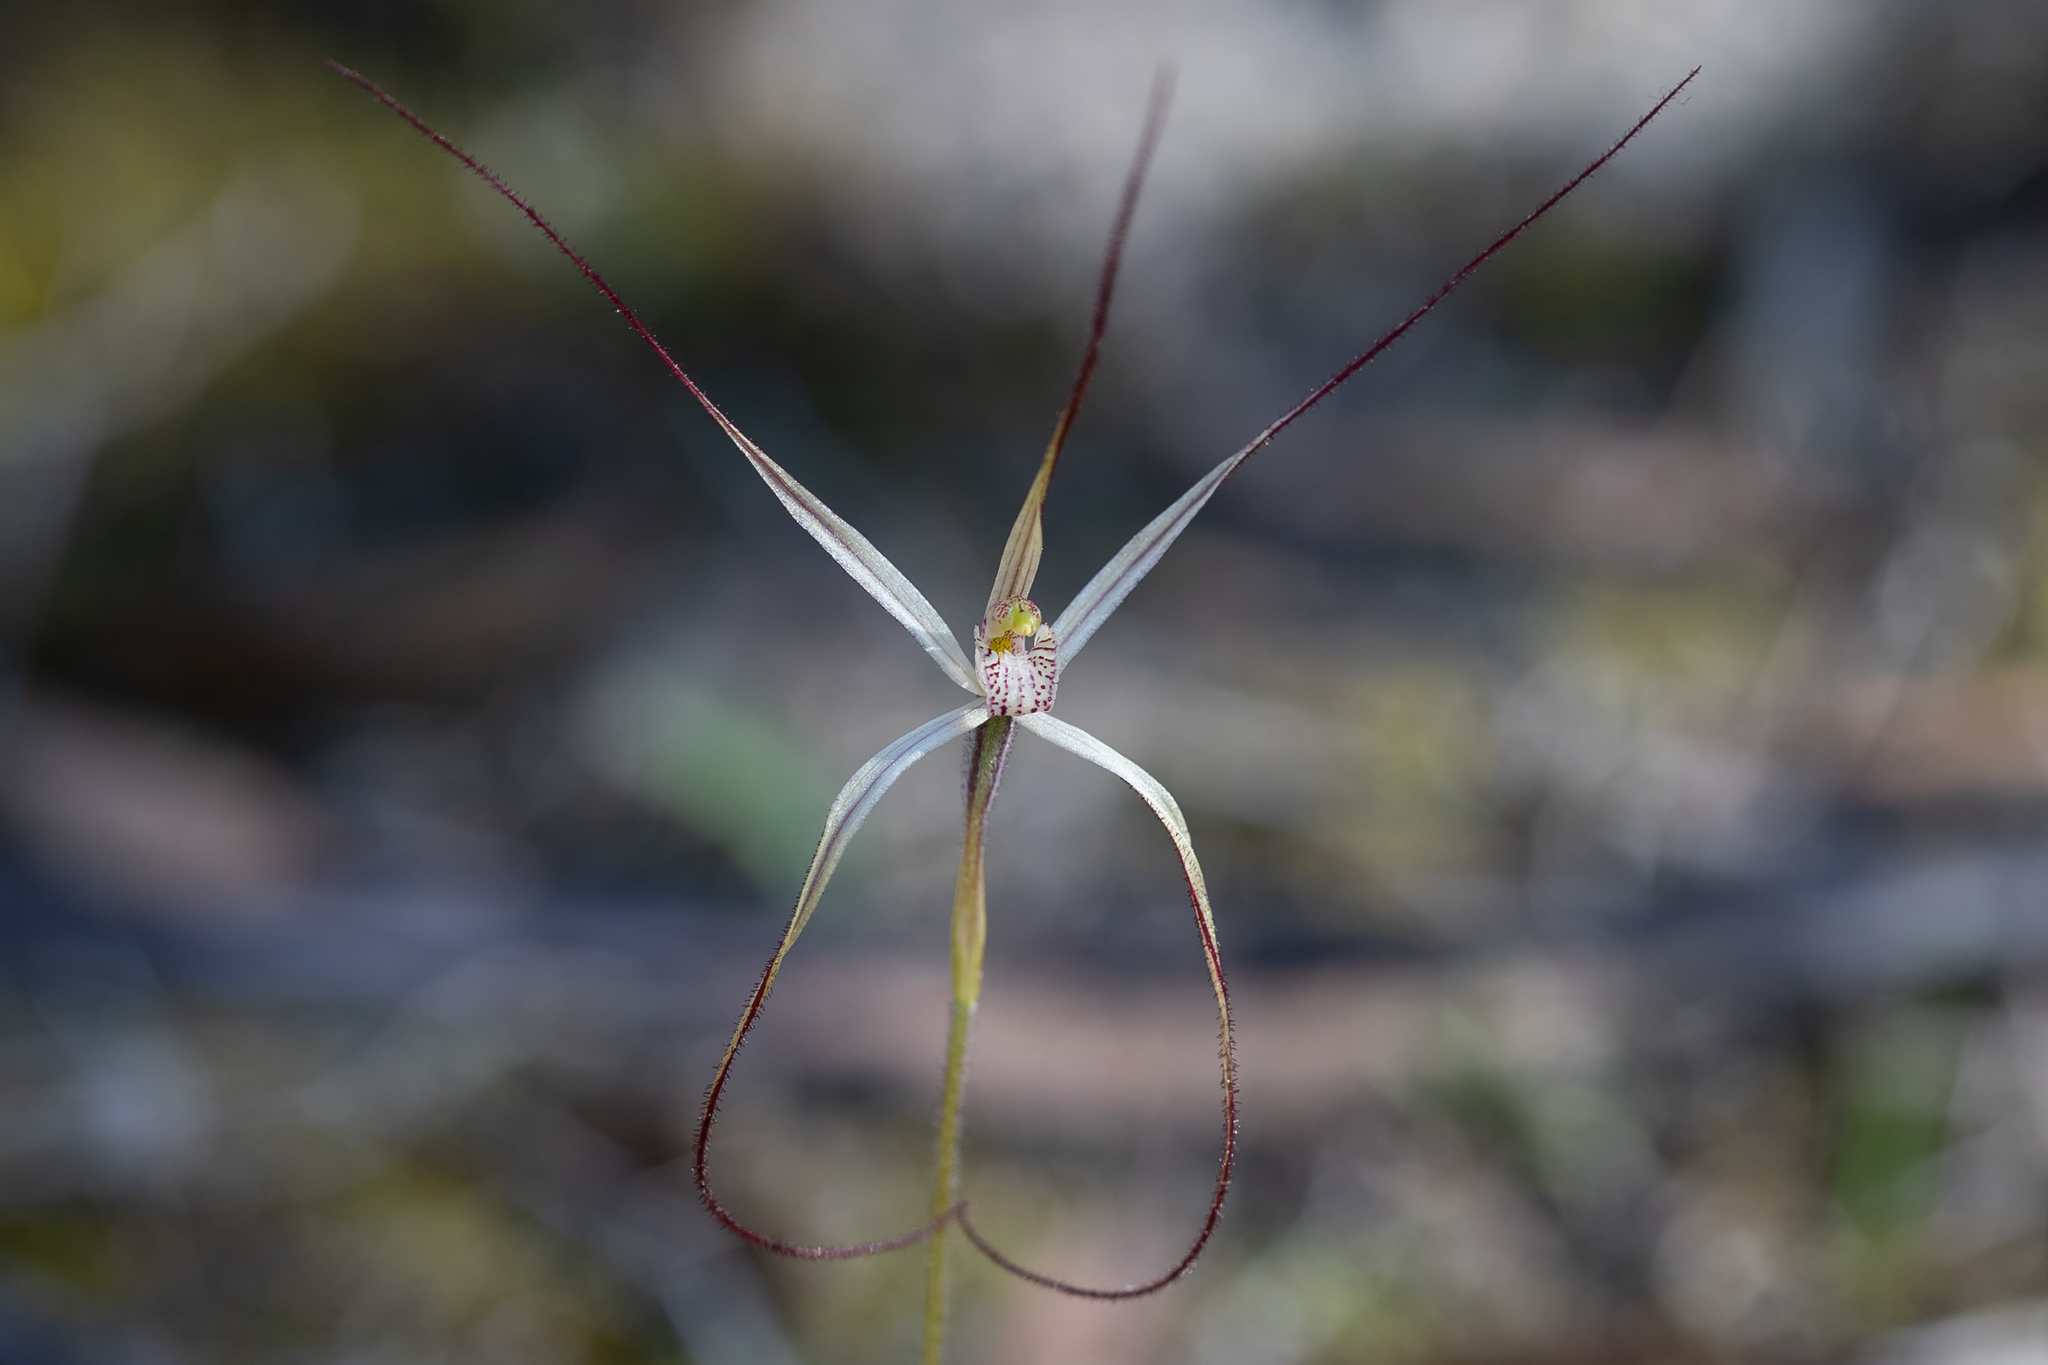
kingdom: Plantae
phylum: Tracheophyta
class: Liliopsida
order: Asparagales
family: Orchidaceae
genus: Caladenia
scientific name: Caladenia capillata
